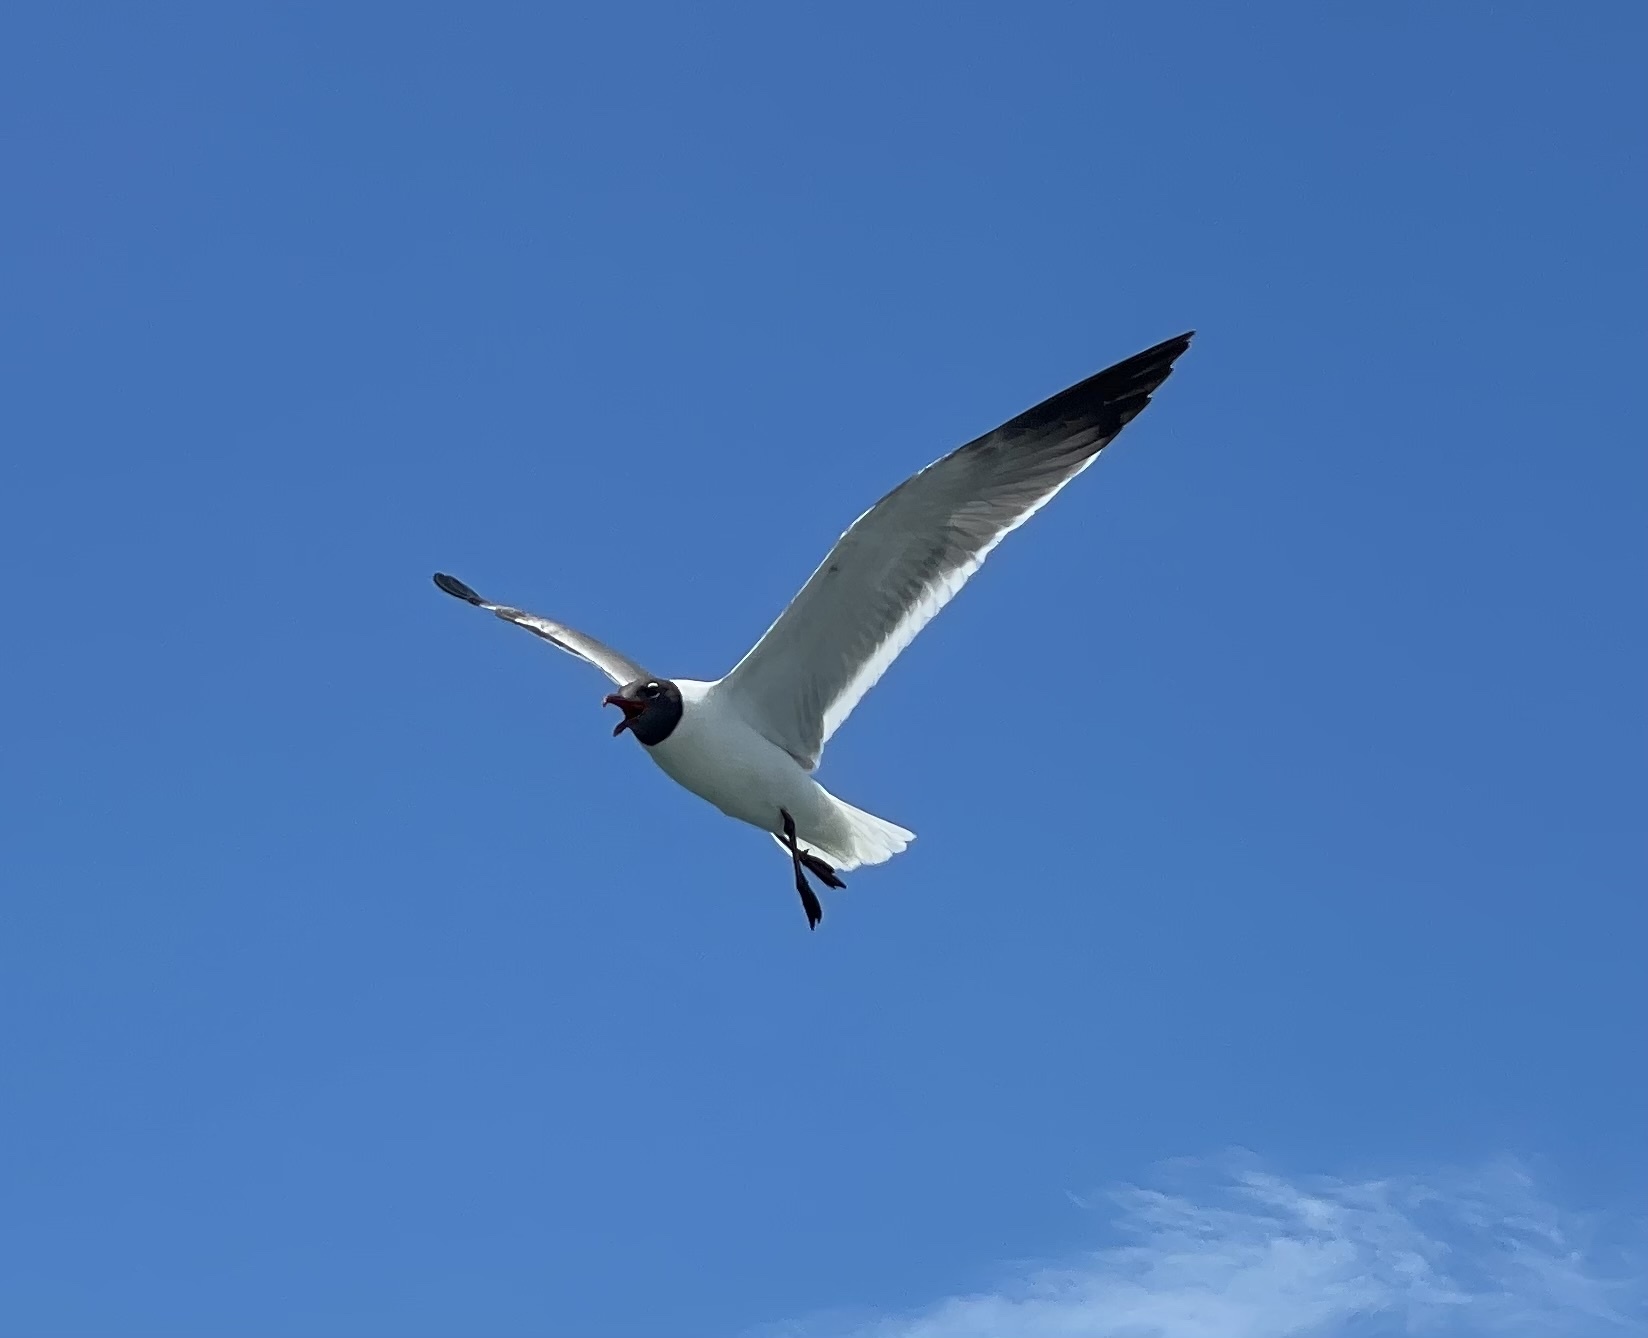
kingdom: Animalia
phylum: Chordata
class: Aves
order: Charadriiformes
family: Laridae
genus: Leucophaeus
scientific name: Leucophaeus atricilla
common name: Laughing gull
